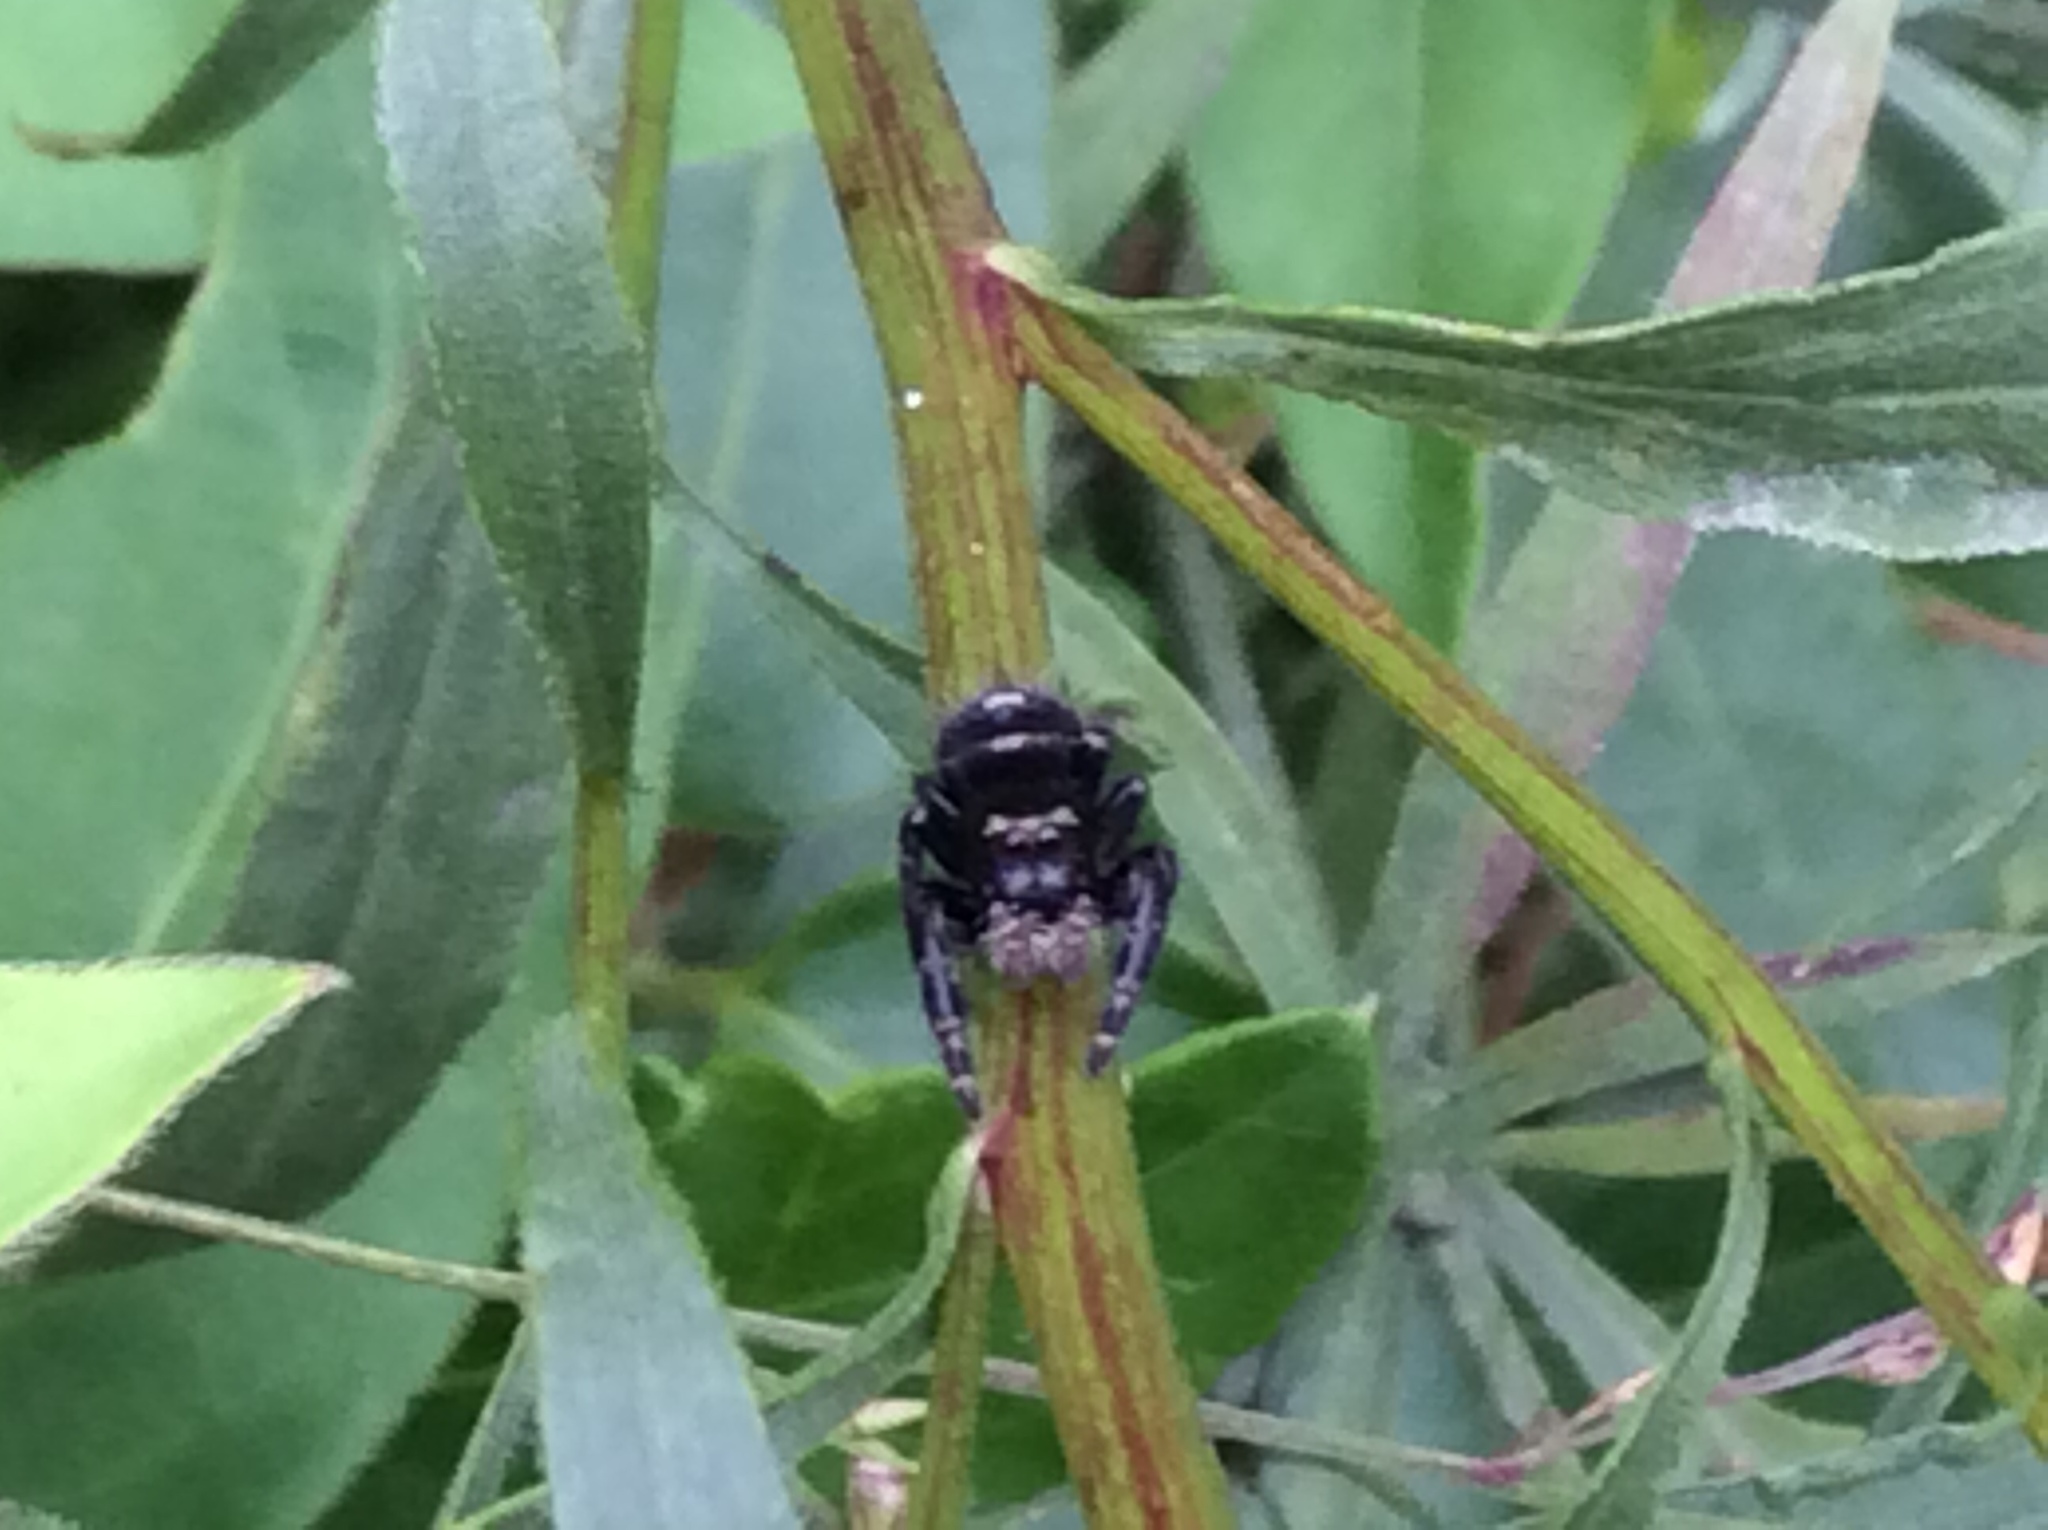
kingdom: Animalia
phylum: Arthropoda
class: Arachnida
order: Araneae
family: Salticidae
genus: Phidippus
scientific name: Phidippus audax
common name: Bold jumper
